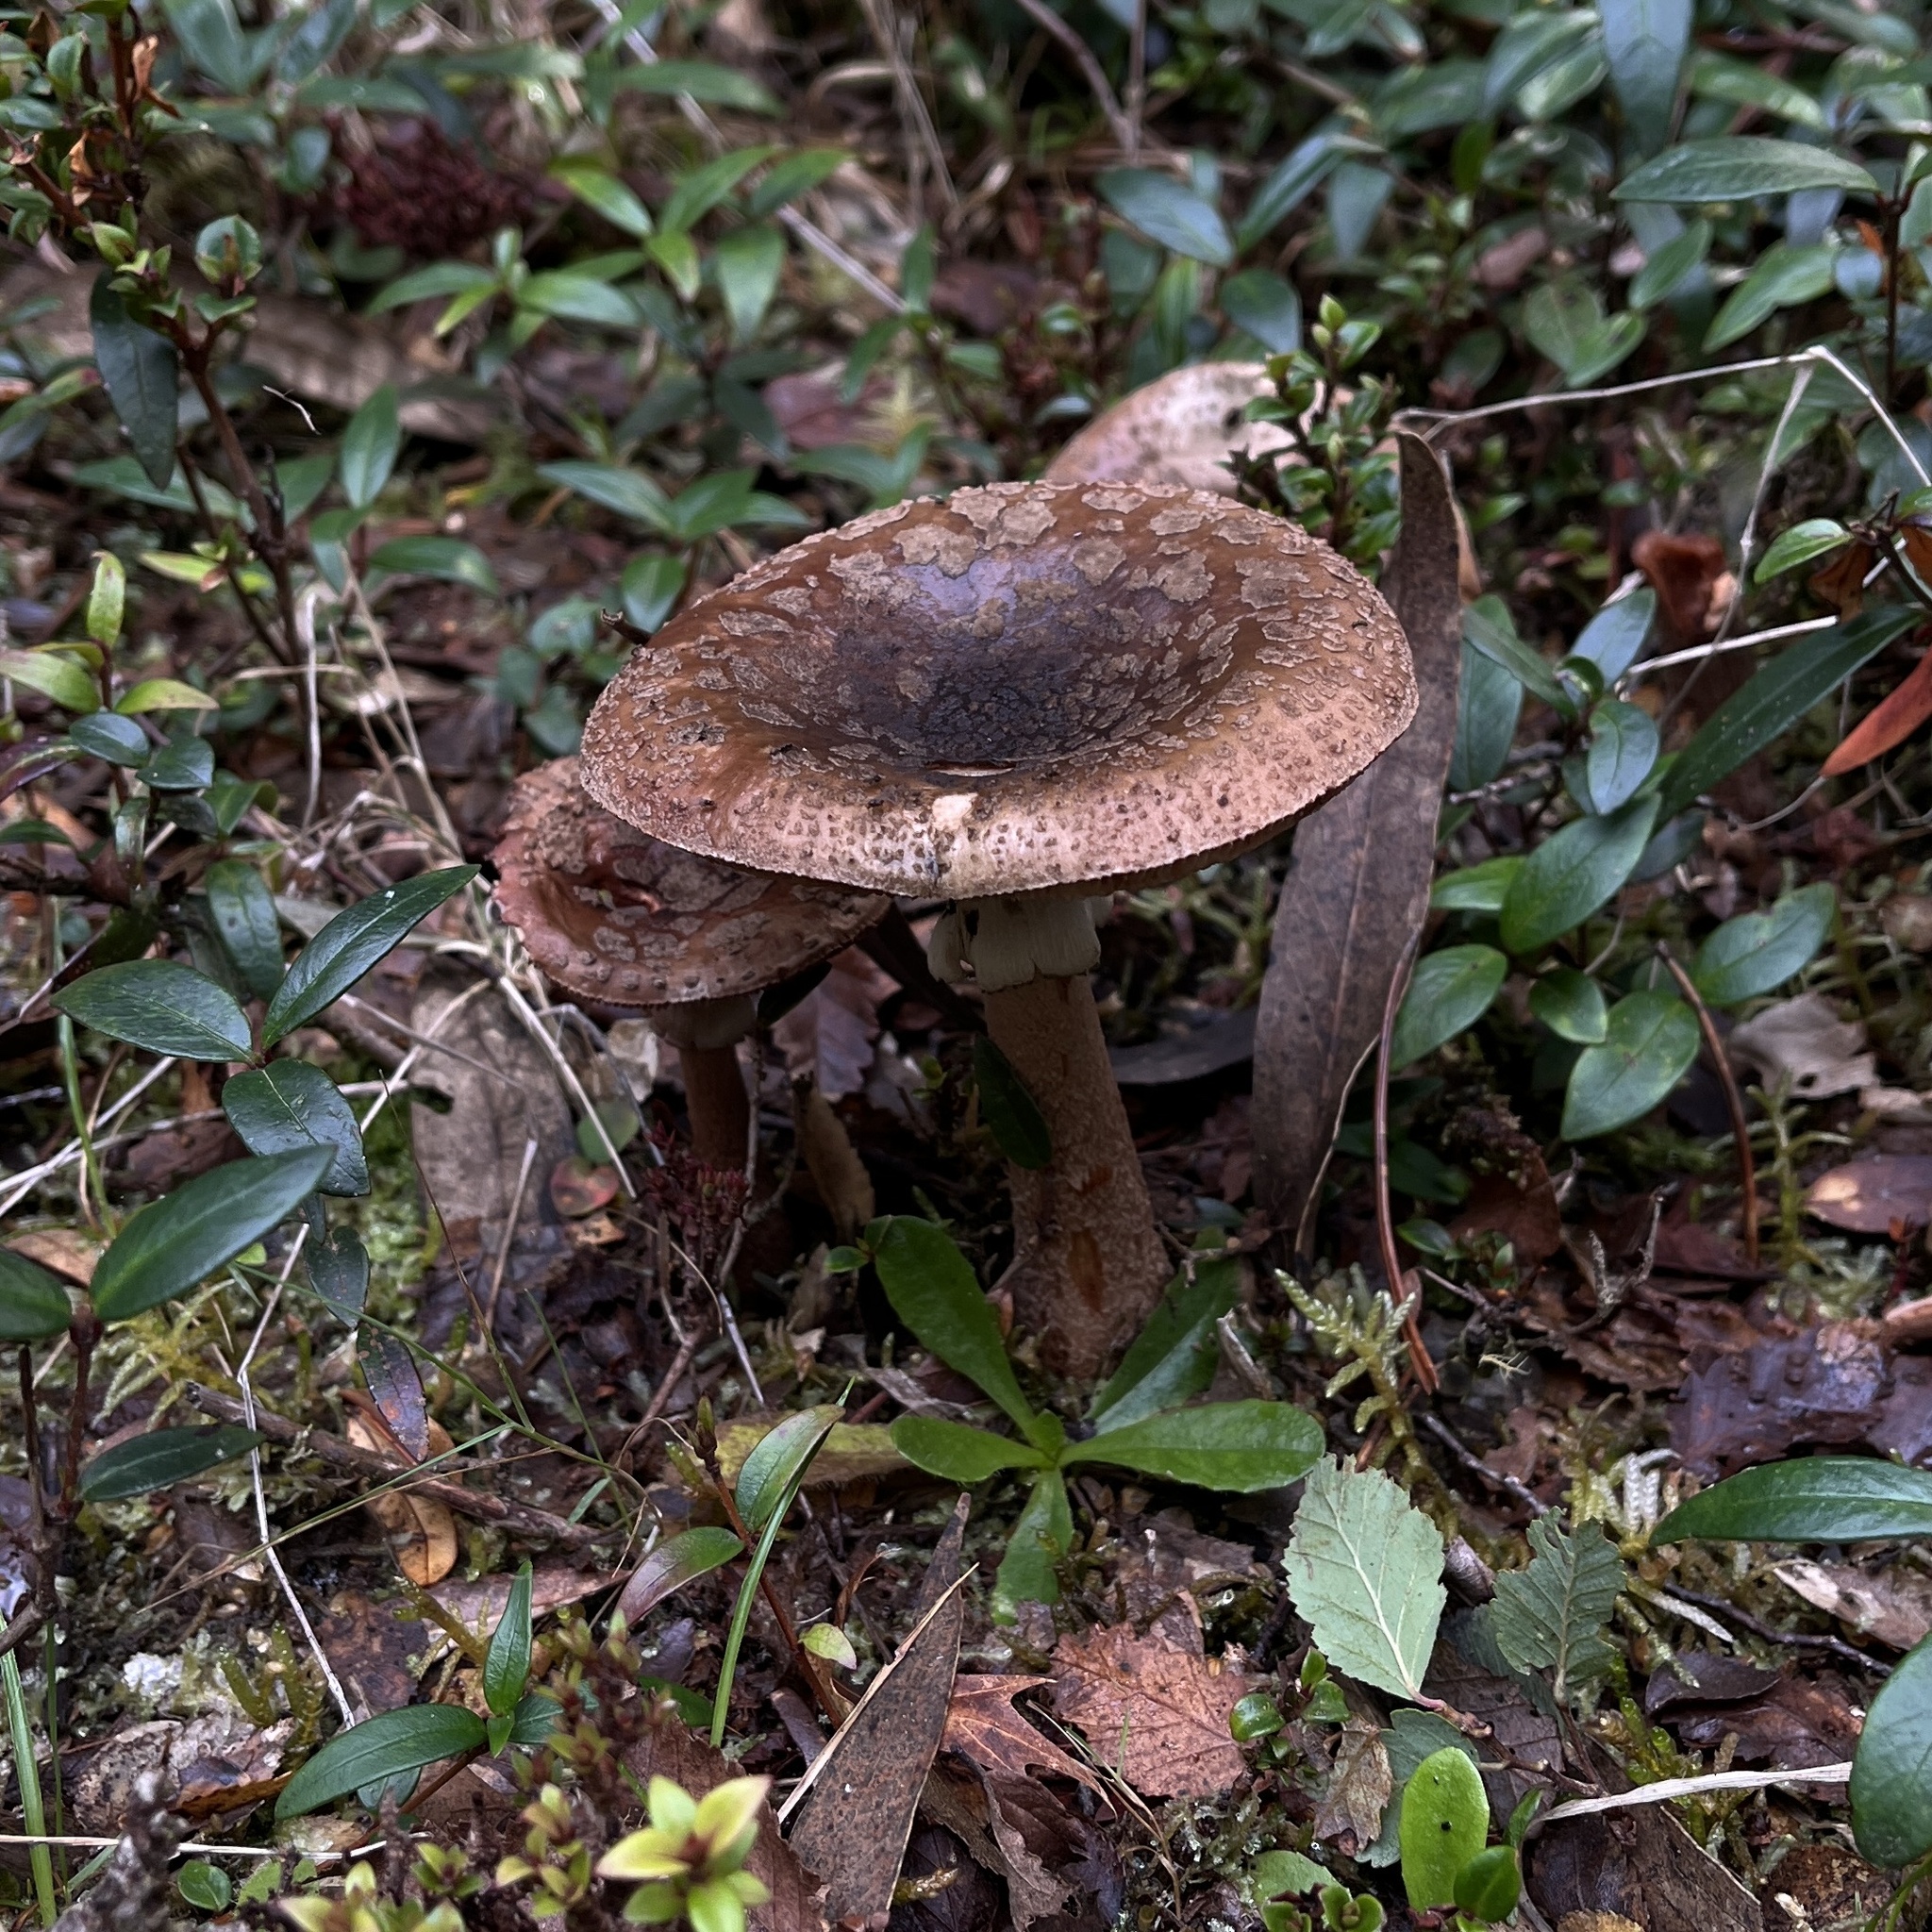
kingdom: Fungi
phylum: Basidiomycota
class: Agaricomycetes
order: Agaricales
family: Amanitaceae
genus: Amanita
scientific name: Amanita rubescens
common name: Blusher
